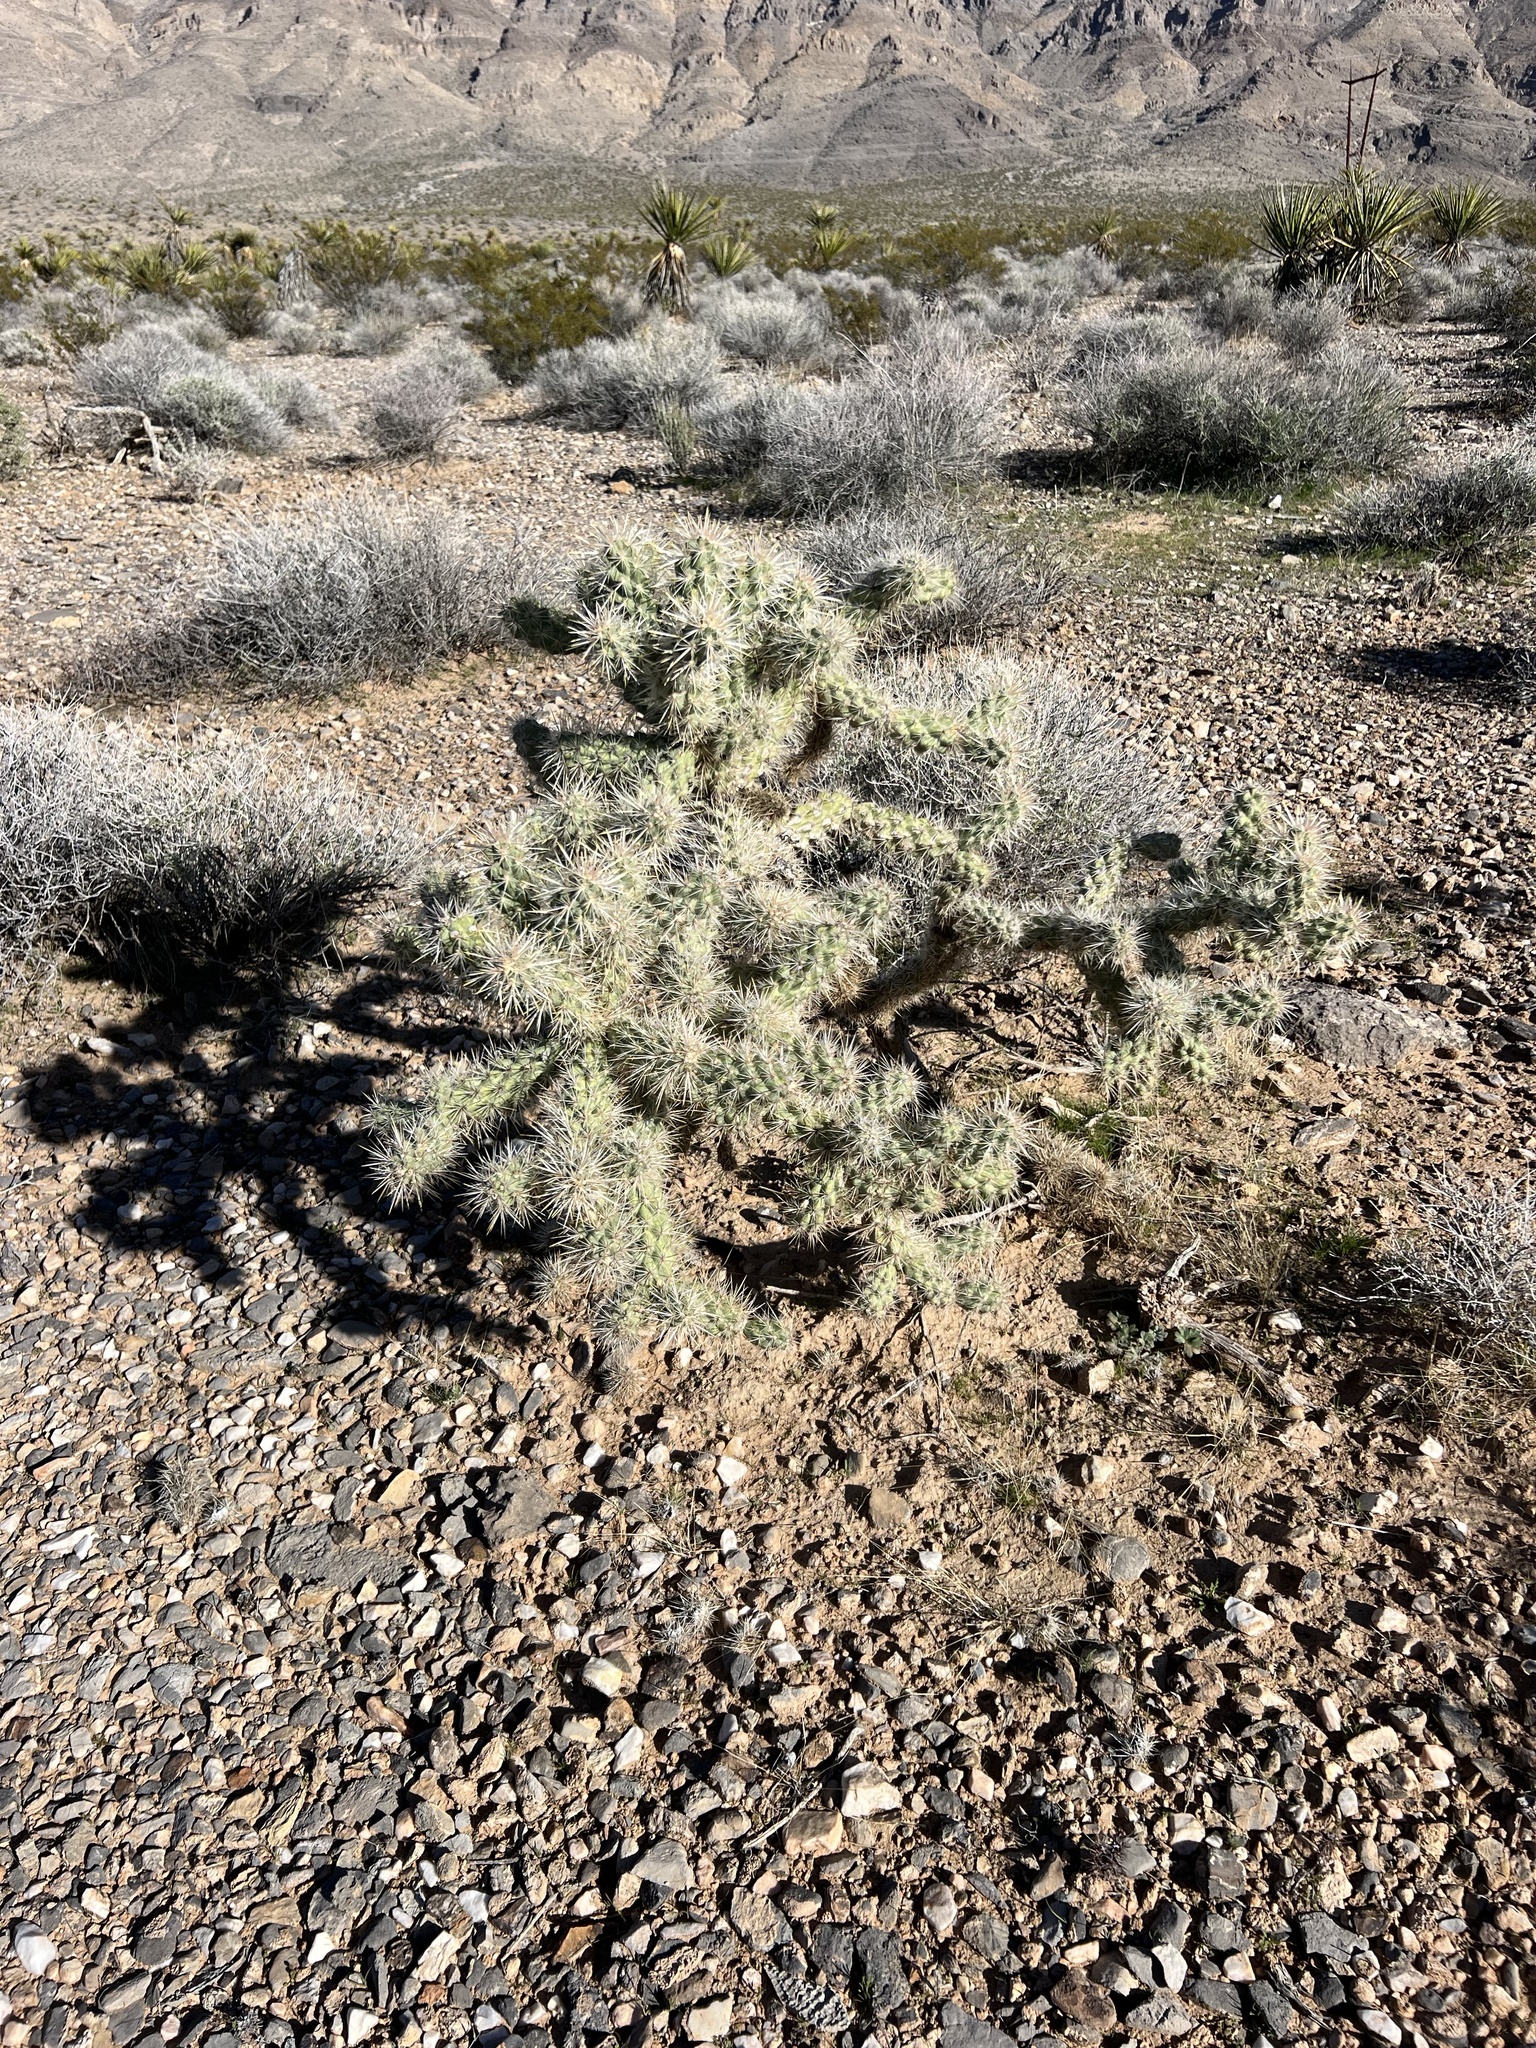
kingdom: Plantae
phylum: Tracheophyta
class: Magnoliopsida
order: Caryophyllales
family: Cactaceae
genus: Cylindropuntia
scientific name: Cylindropuntia echinocarpa
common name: Ground cholla
